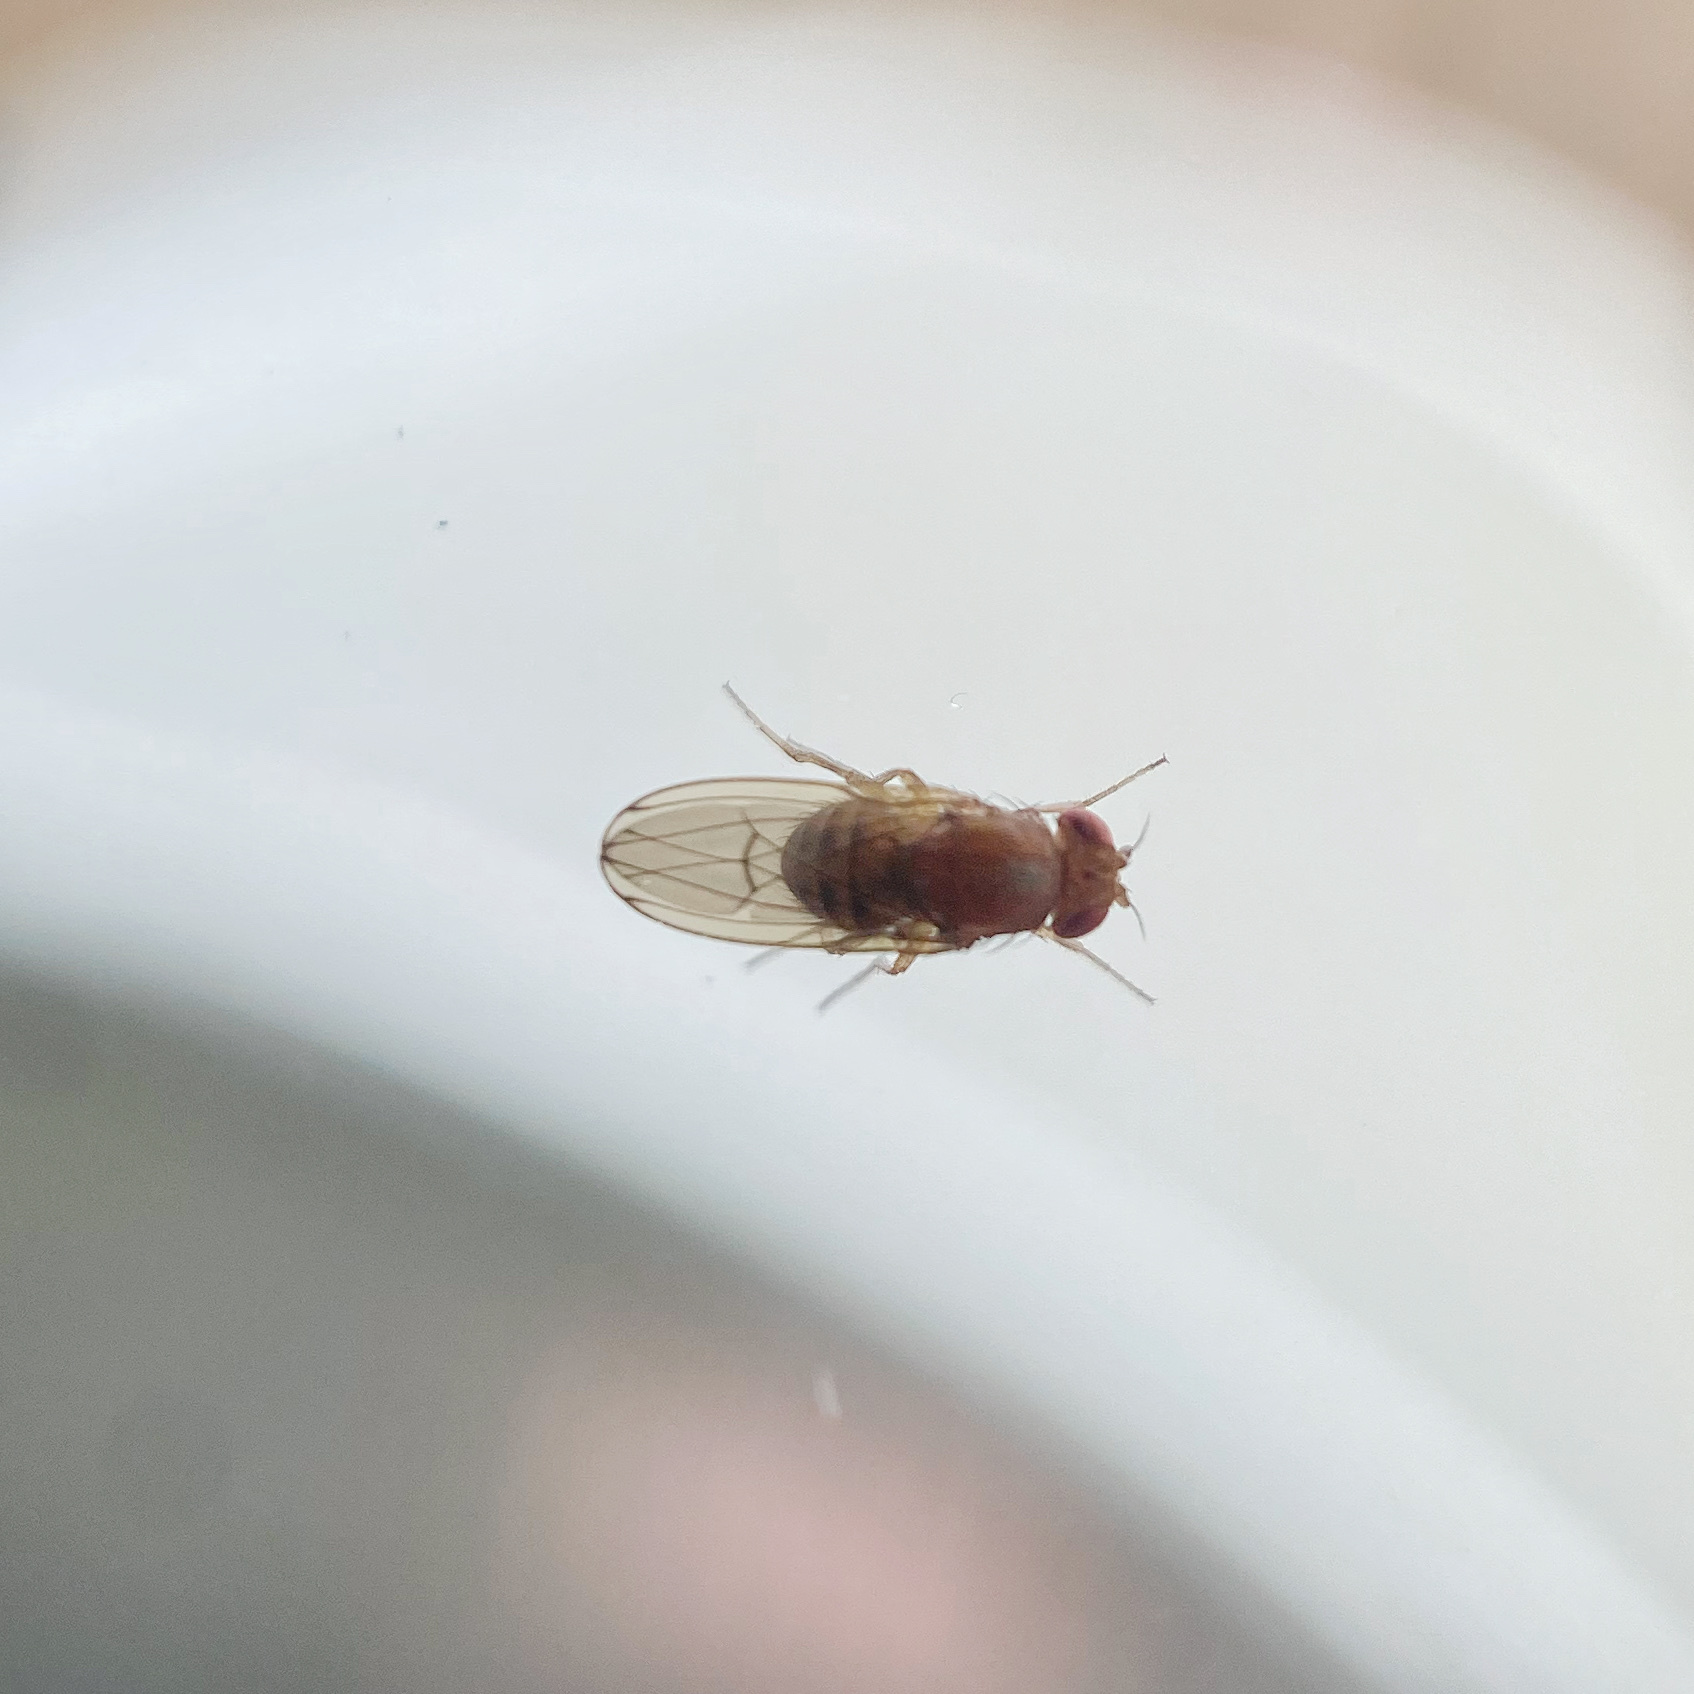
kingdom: Animalia
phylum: Arthropoda
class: Insecta
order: Diptera
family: Drosophilidae
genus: Drosophila
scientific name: Drosophila immigrans
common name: Pomace fly
